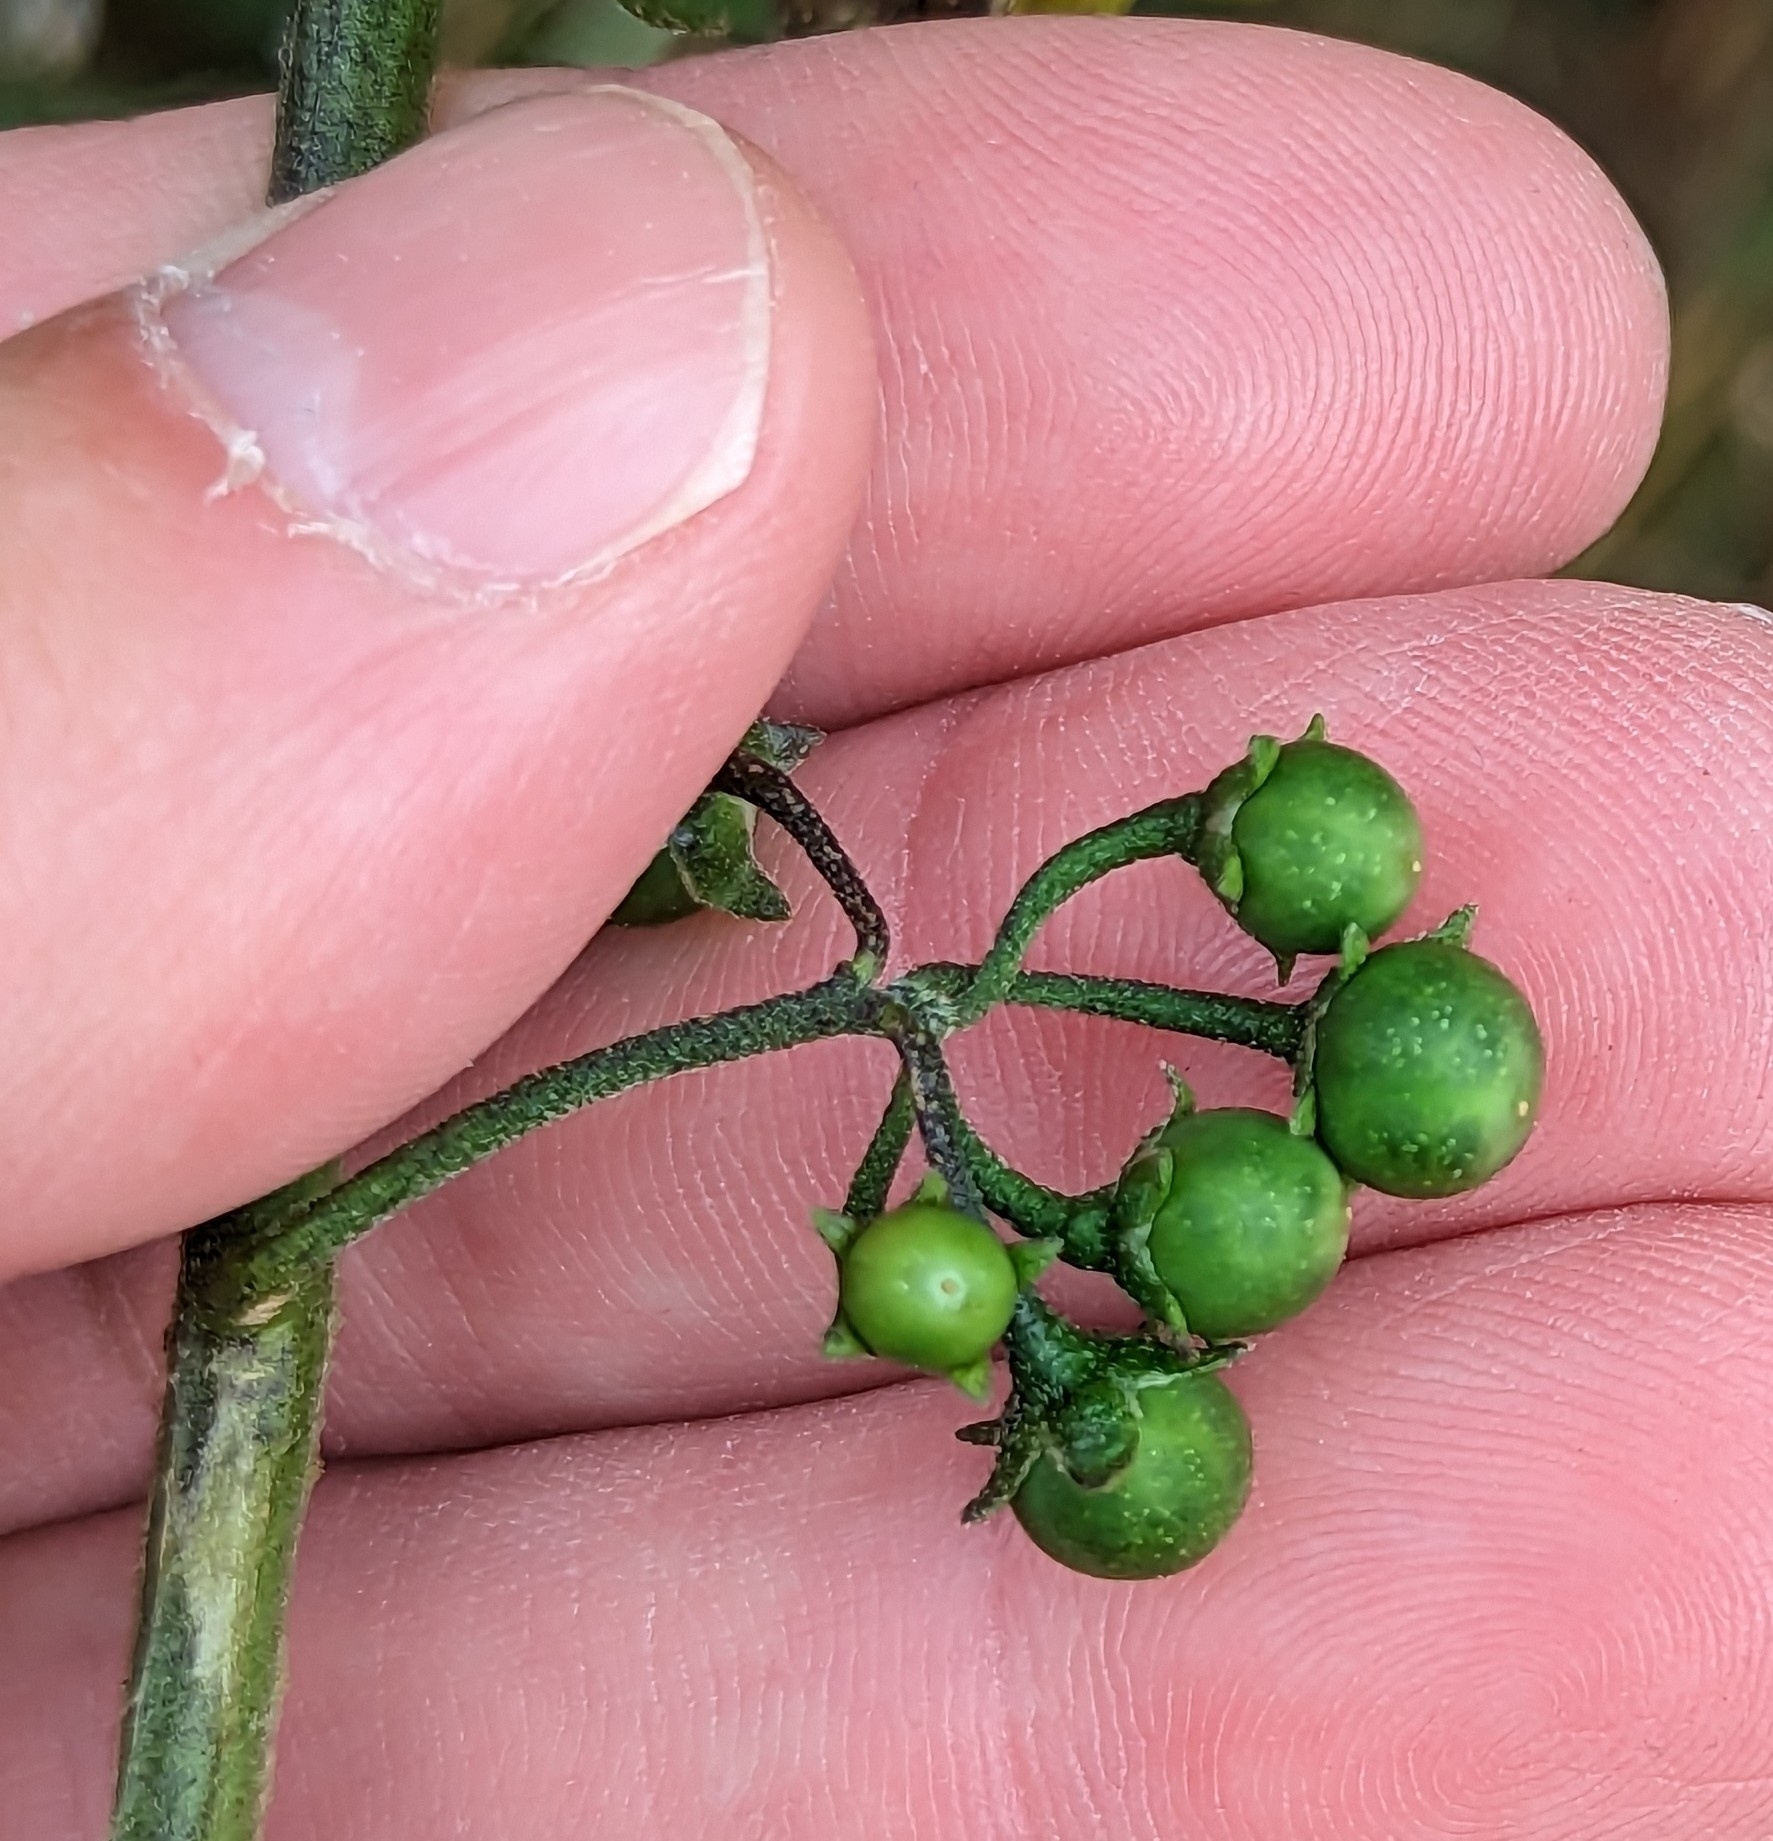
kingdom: Plantae
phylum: Tracheophyta
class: Magnoliopsida
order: Solanales
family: Solanaceae
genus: Solanum
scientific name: Solanum furcatum
